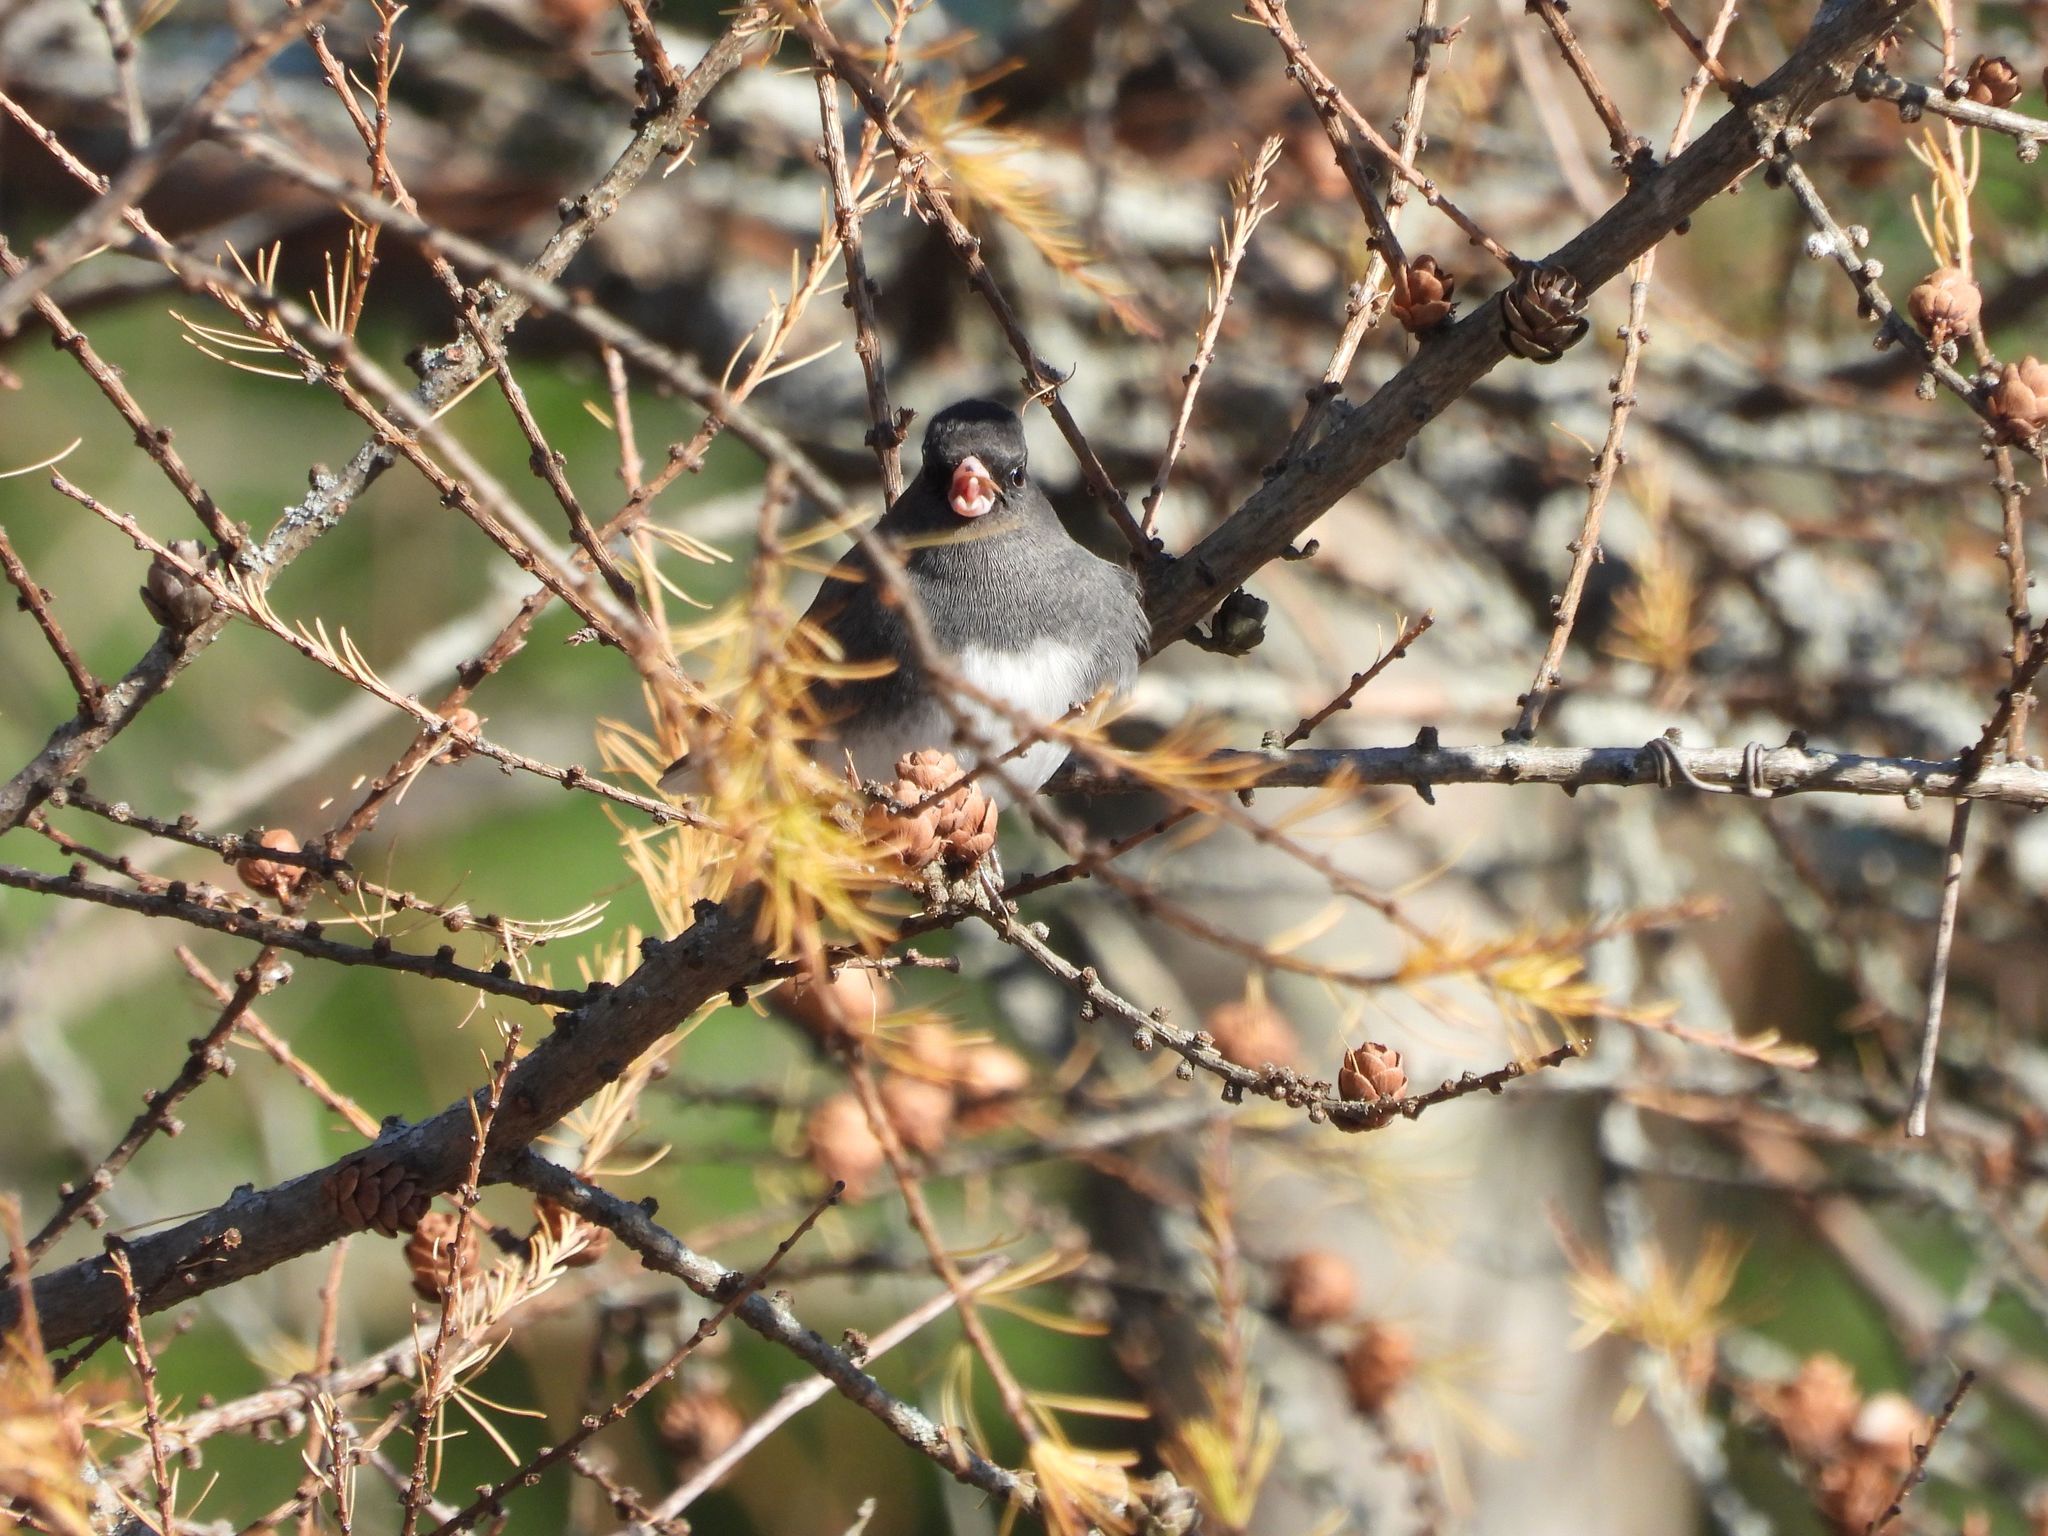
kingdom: Animalia
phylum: Chordata
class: Aves
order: Passeriformes
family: Passerellidae
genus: Junco
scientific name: Junco hyemalis
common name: Dark-eyed junco
